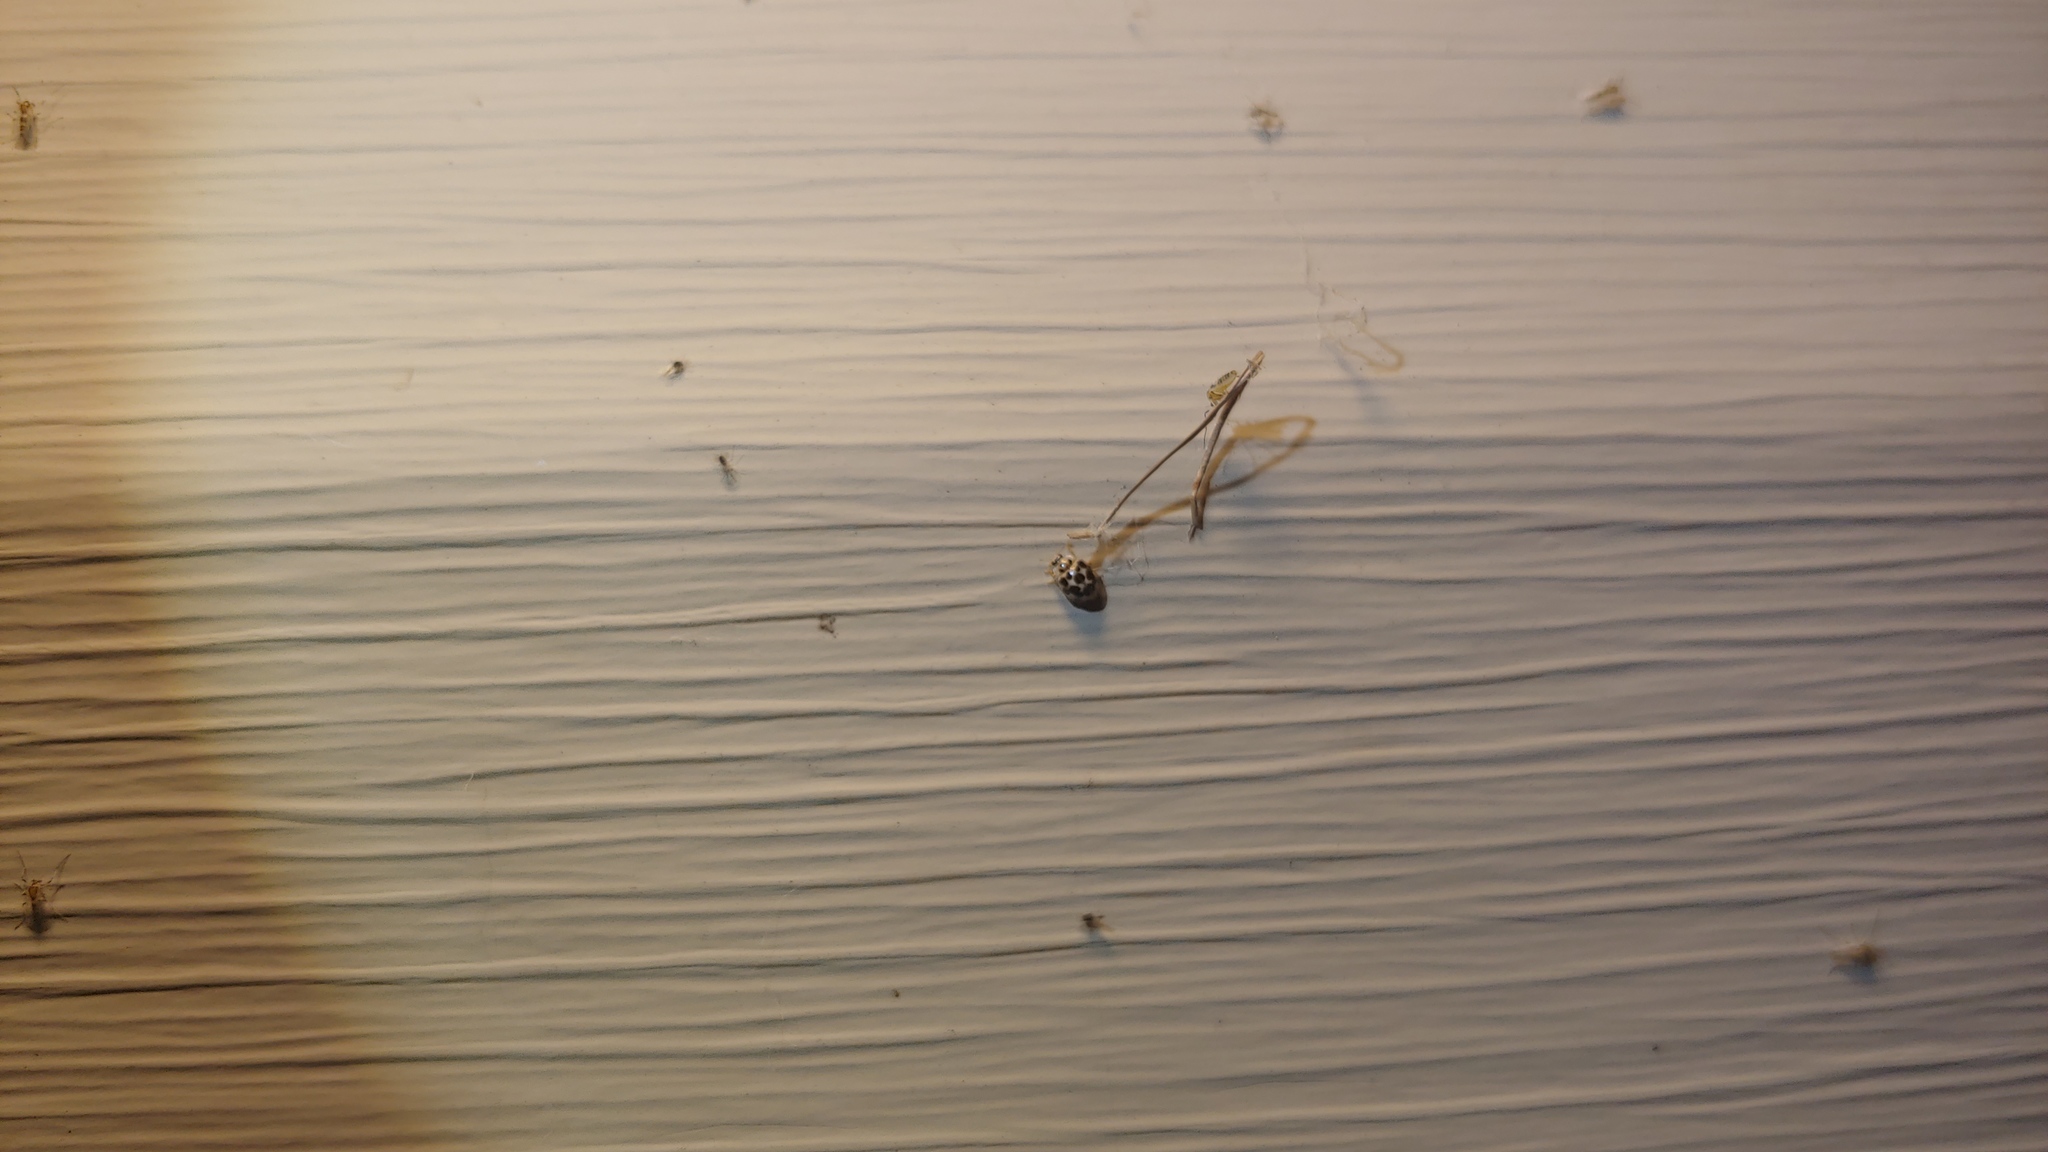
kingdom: Animalia
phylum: Arthropoda
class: Insecta
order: Coleoptera
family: Coccinellidae
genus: Psyllobora
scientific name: Psyllobora vigintimaculata
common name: Ladybird beetle
